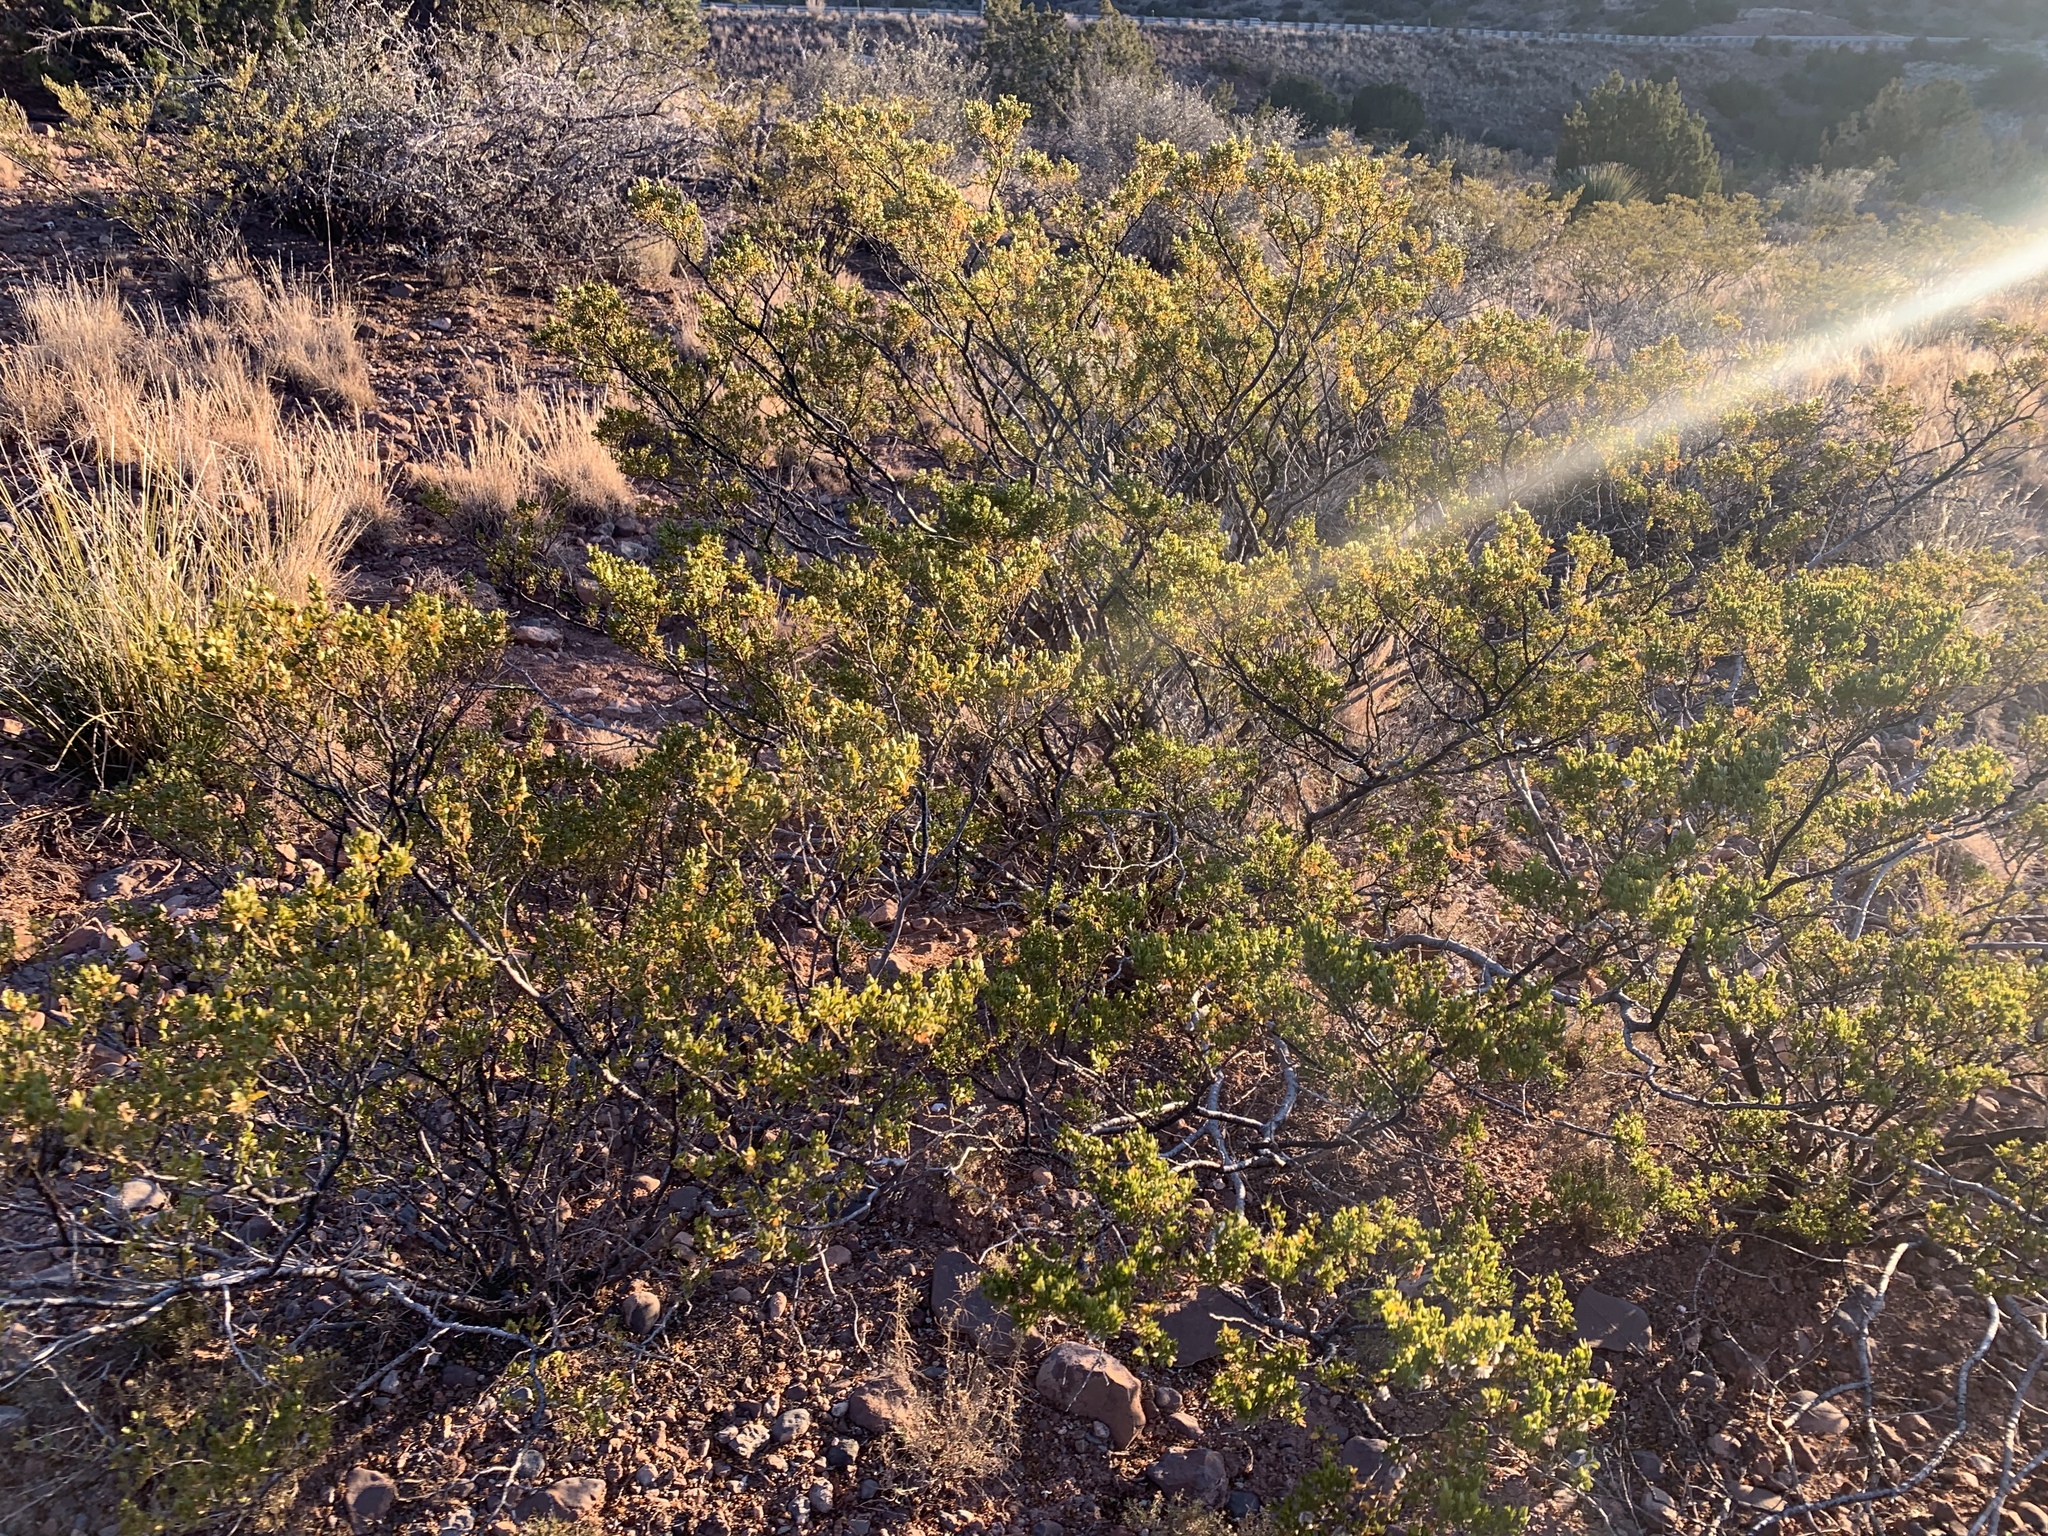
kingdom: Plantae
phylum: Tracheophyta
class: Magnoliopsida
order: Zygophyllales
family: Zygophyllaceae
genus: Larrea
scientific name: Larrea tridentata
